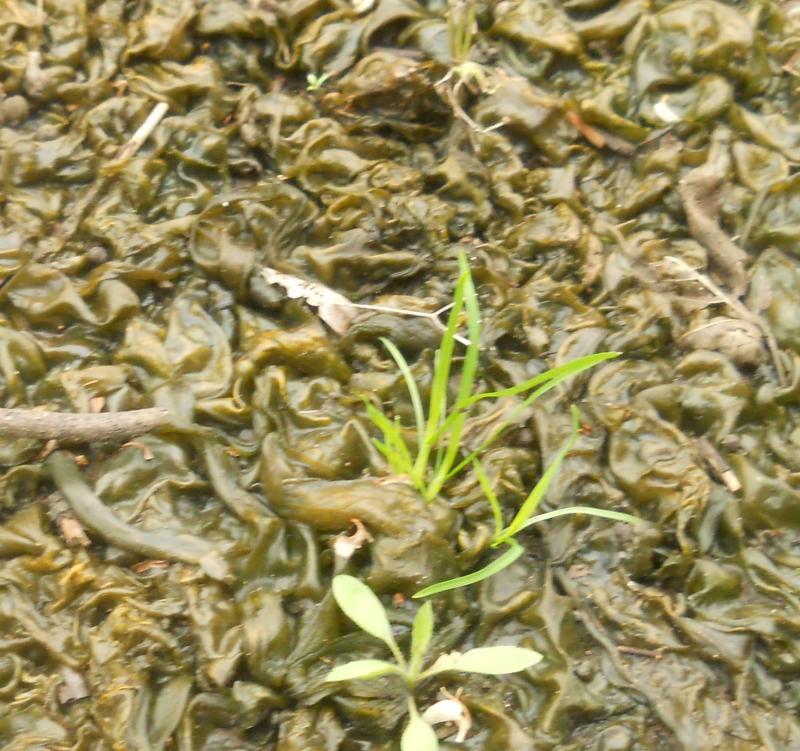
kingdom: Bacteria
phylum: Cyanobacteria
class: Cyanobacteriia
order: Cyanobacteriales
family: Nostocaceae
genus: Nostoc
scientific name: Nostoc commune
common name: Star jelly
